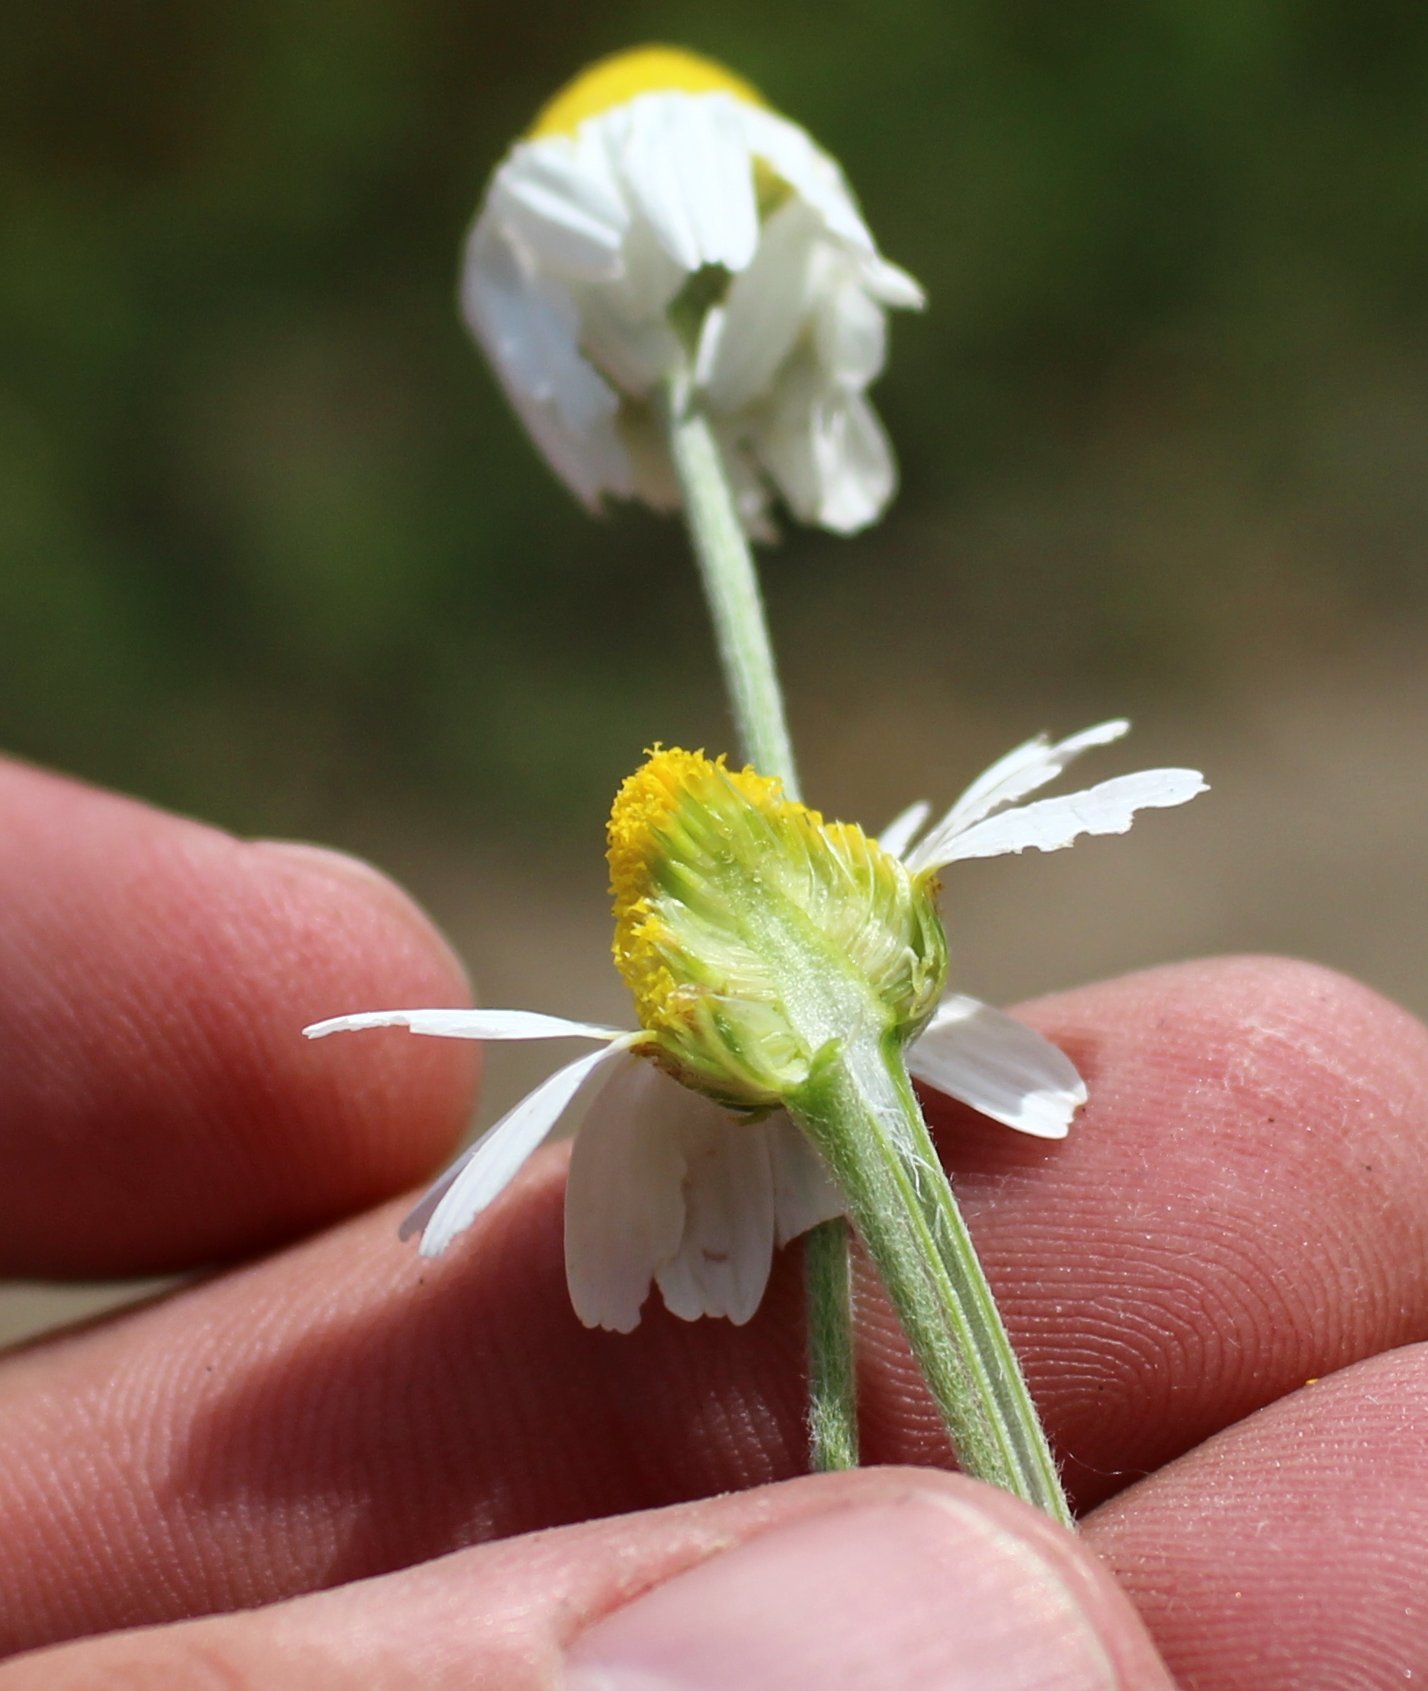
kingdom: Plantae
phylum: Tracheophyta
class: Magnoliopsida
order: Asterales
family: Asteraceae
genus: Anthemis
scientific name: Anthemis ruthenica
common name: Eastern chamomile
